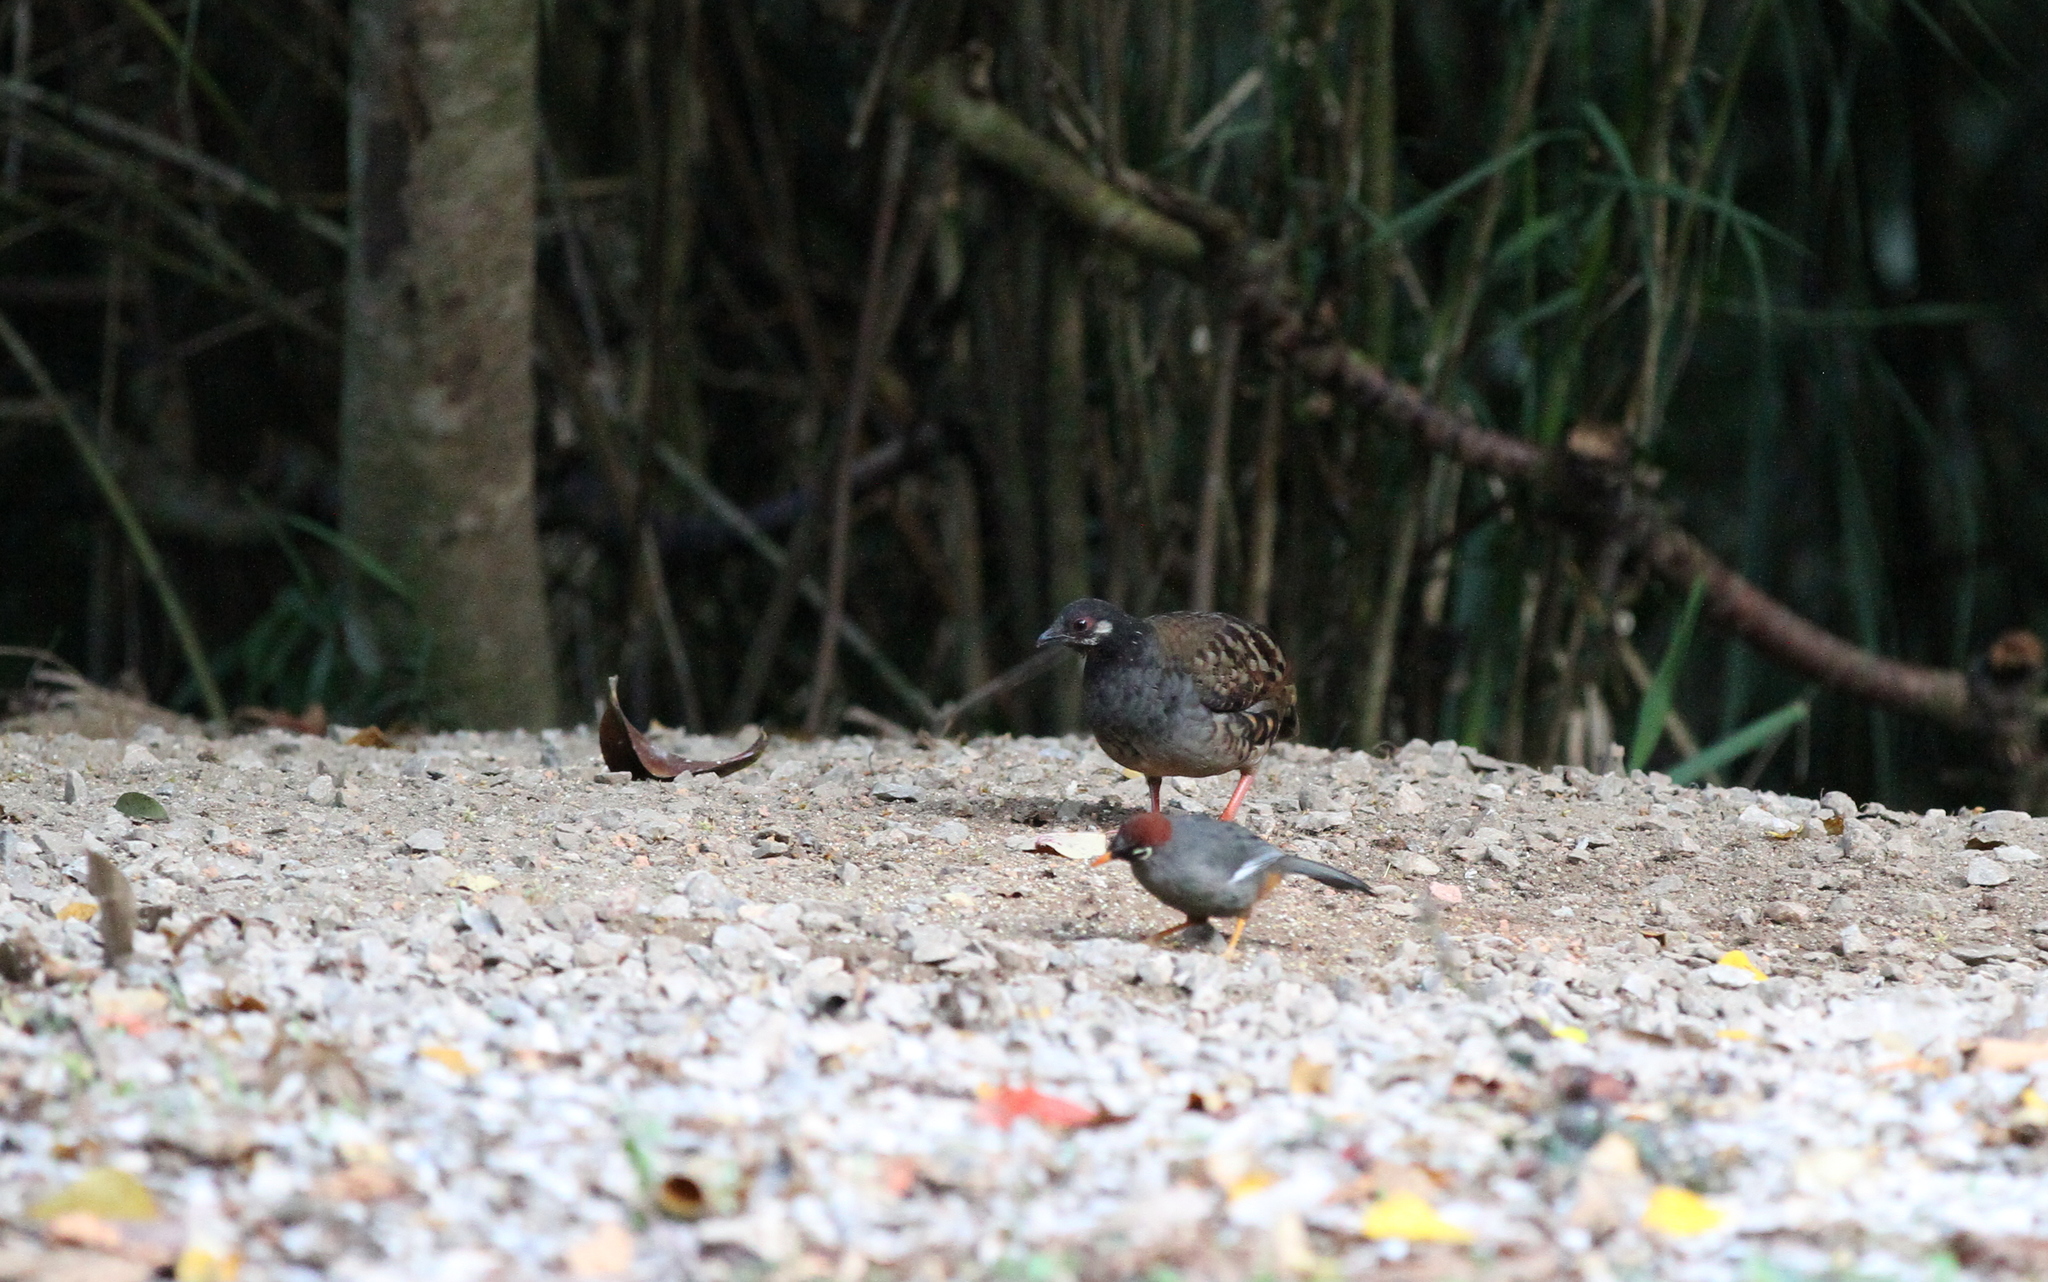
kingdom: Animalia
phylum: Chordata
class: Aves
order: Galliformes
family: Phasianidae
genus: Arborophila
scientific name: Arborophila campbelli
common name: Malaysian partridge
